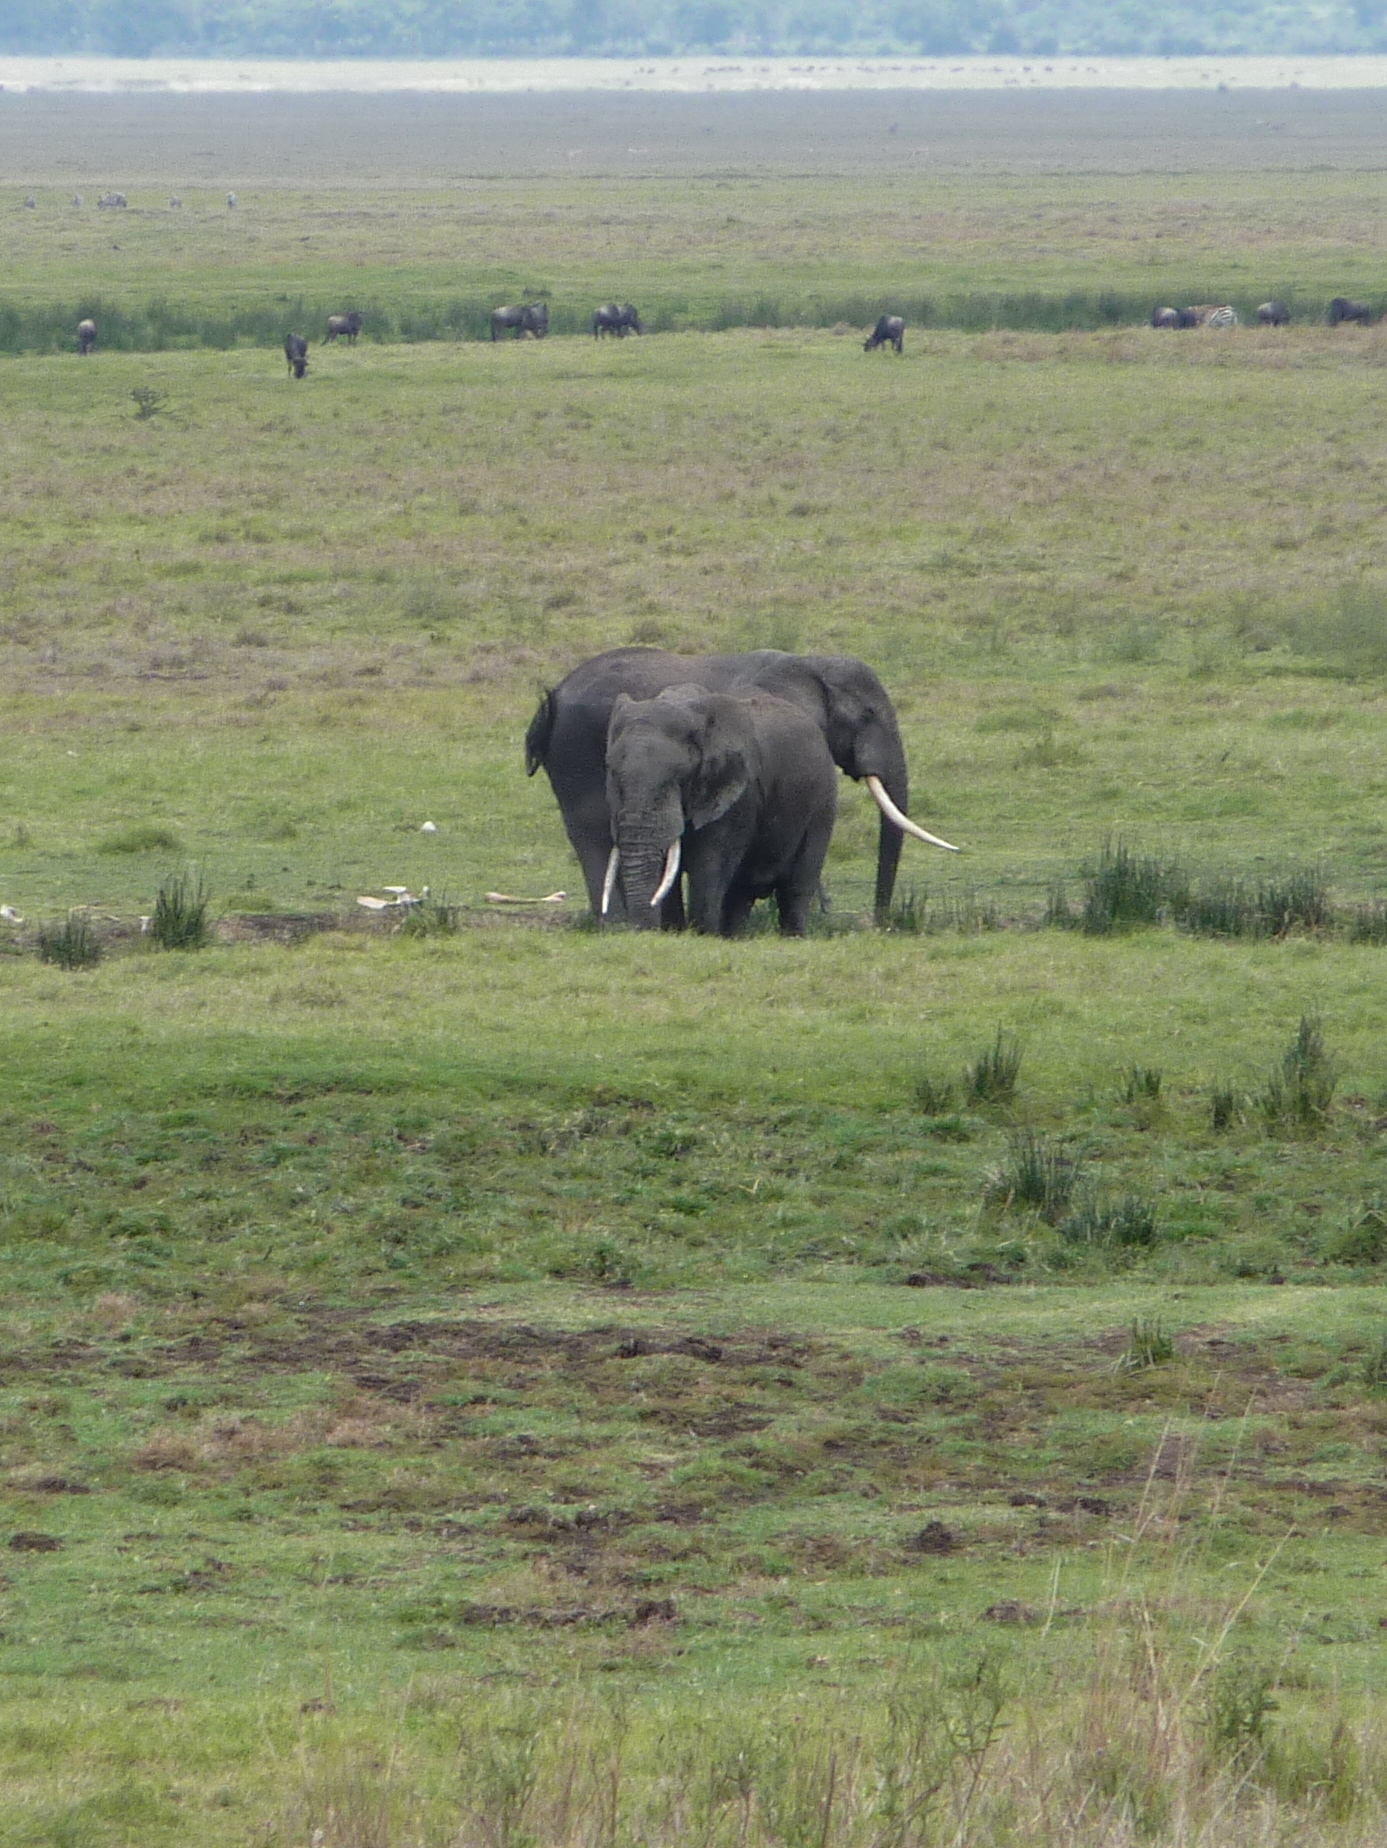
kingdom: Animalia
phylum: Chordata
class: Mammalia
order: Proboscidea
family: Elephantidae
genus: Loxodonta
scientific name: Loxodonta africana
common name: African elephant
